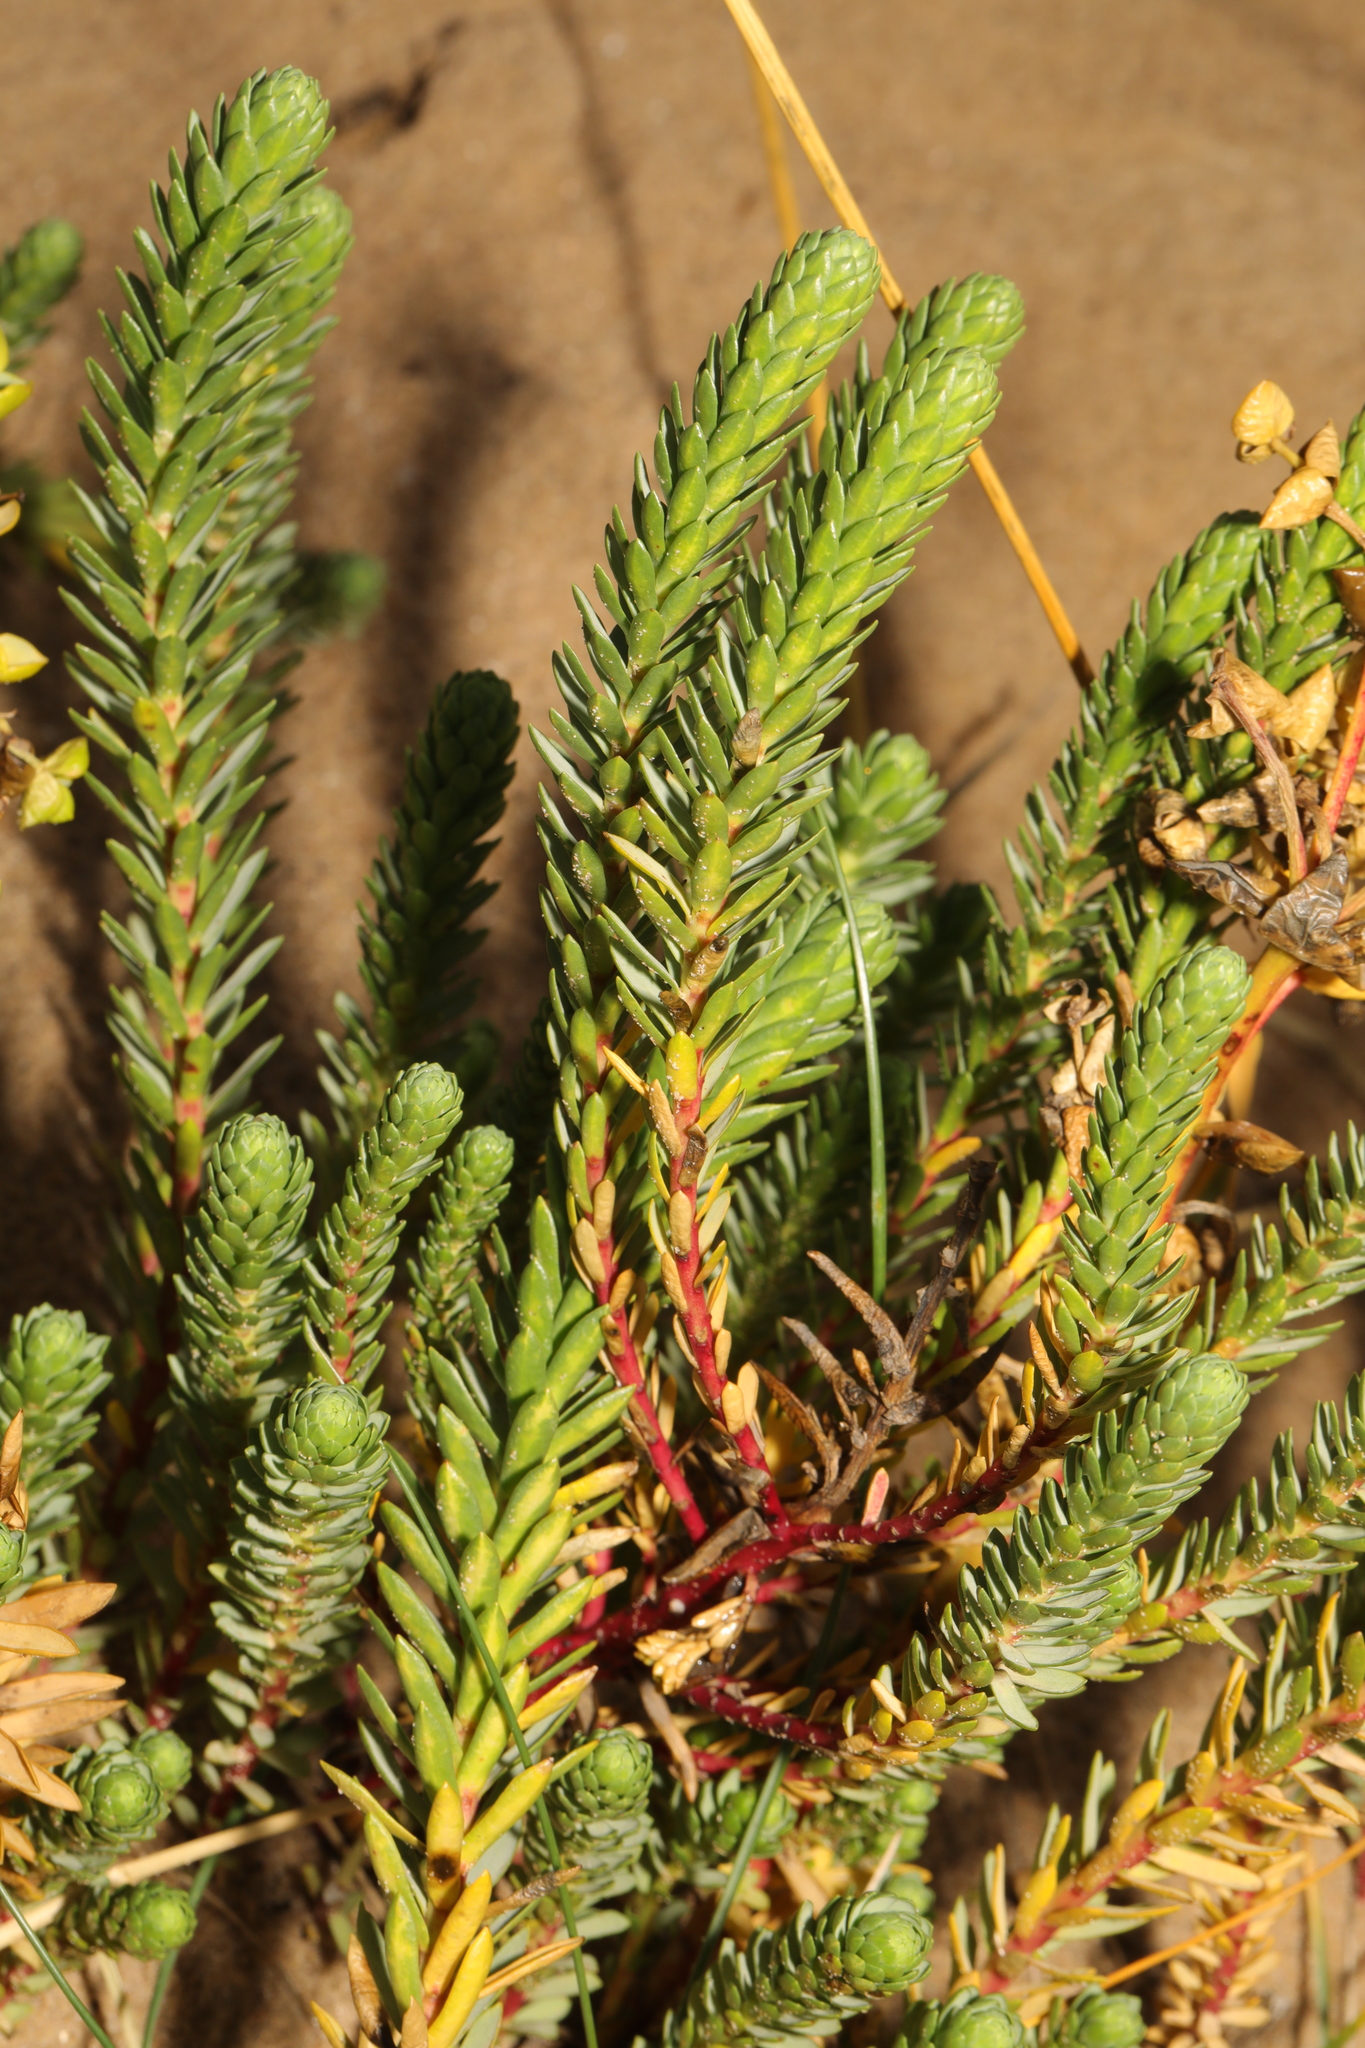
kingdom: Plantae
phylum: Tracheophyta
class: Magnoliopsida
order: Malpighiales
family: Euphorbiaceae
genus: Euphorbia
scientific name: Euphorbia paralias
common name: Sea spurge
